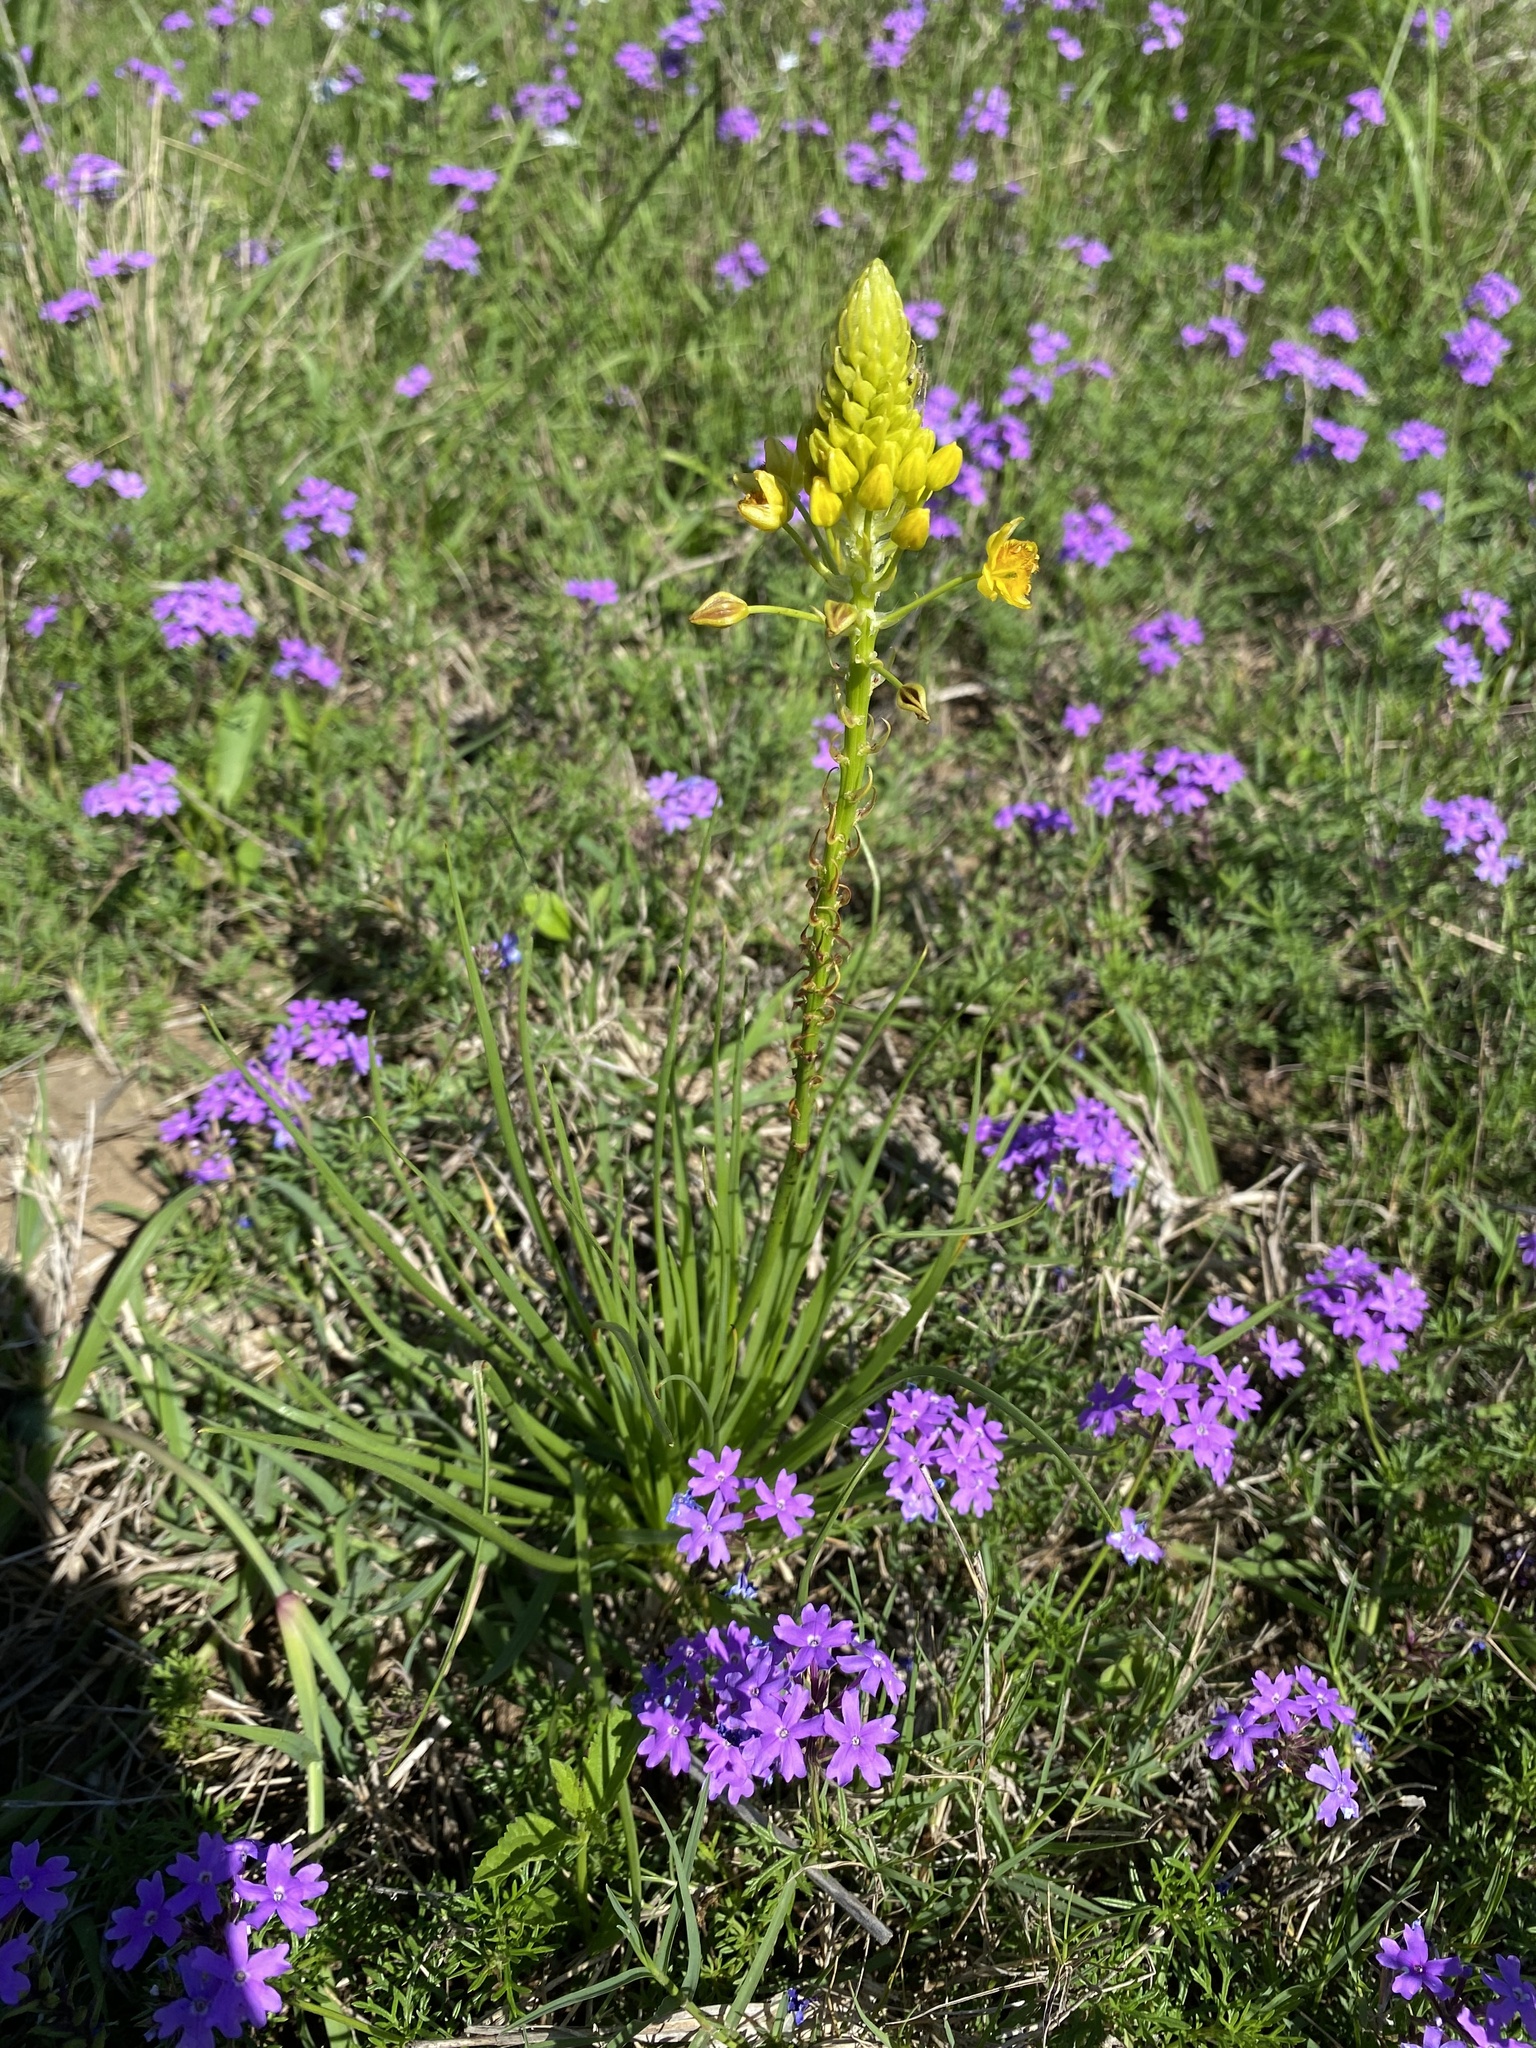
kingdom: Plantae
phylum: Tracheophyta
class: Liliopsida
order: Asparagales
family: Asphodelaceae
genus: Bulbine
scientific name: Bulbine abyssinica
